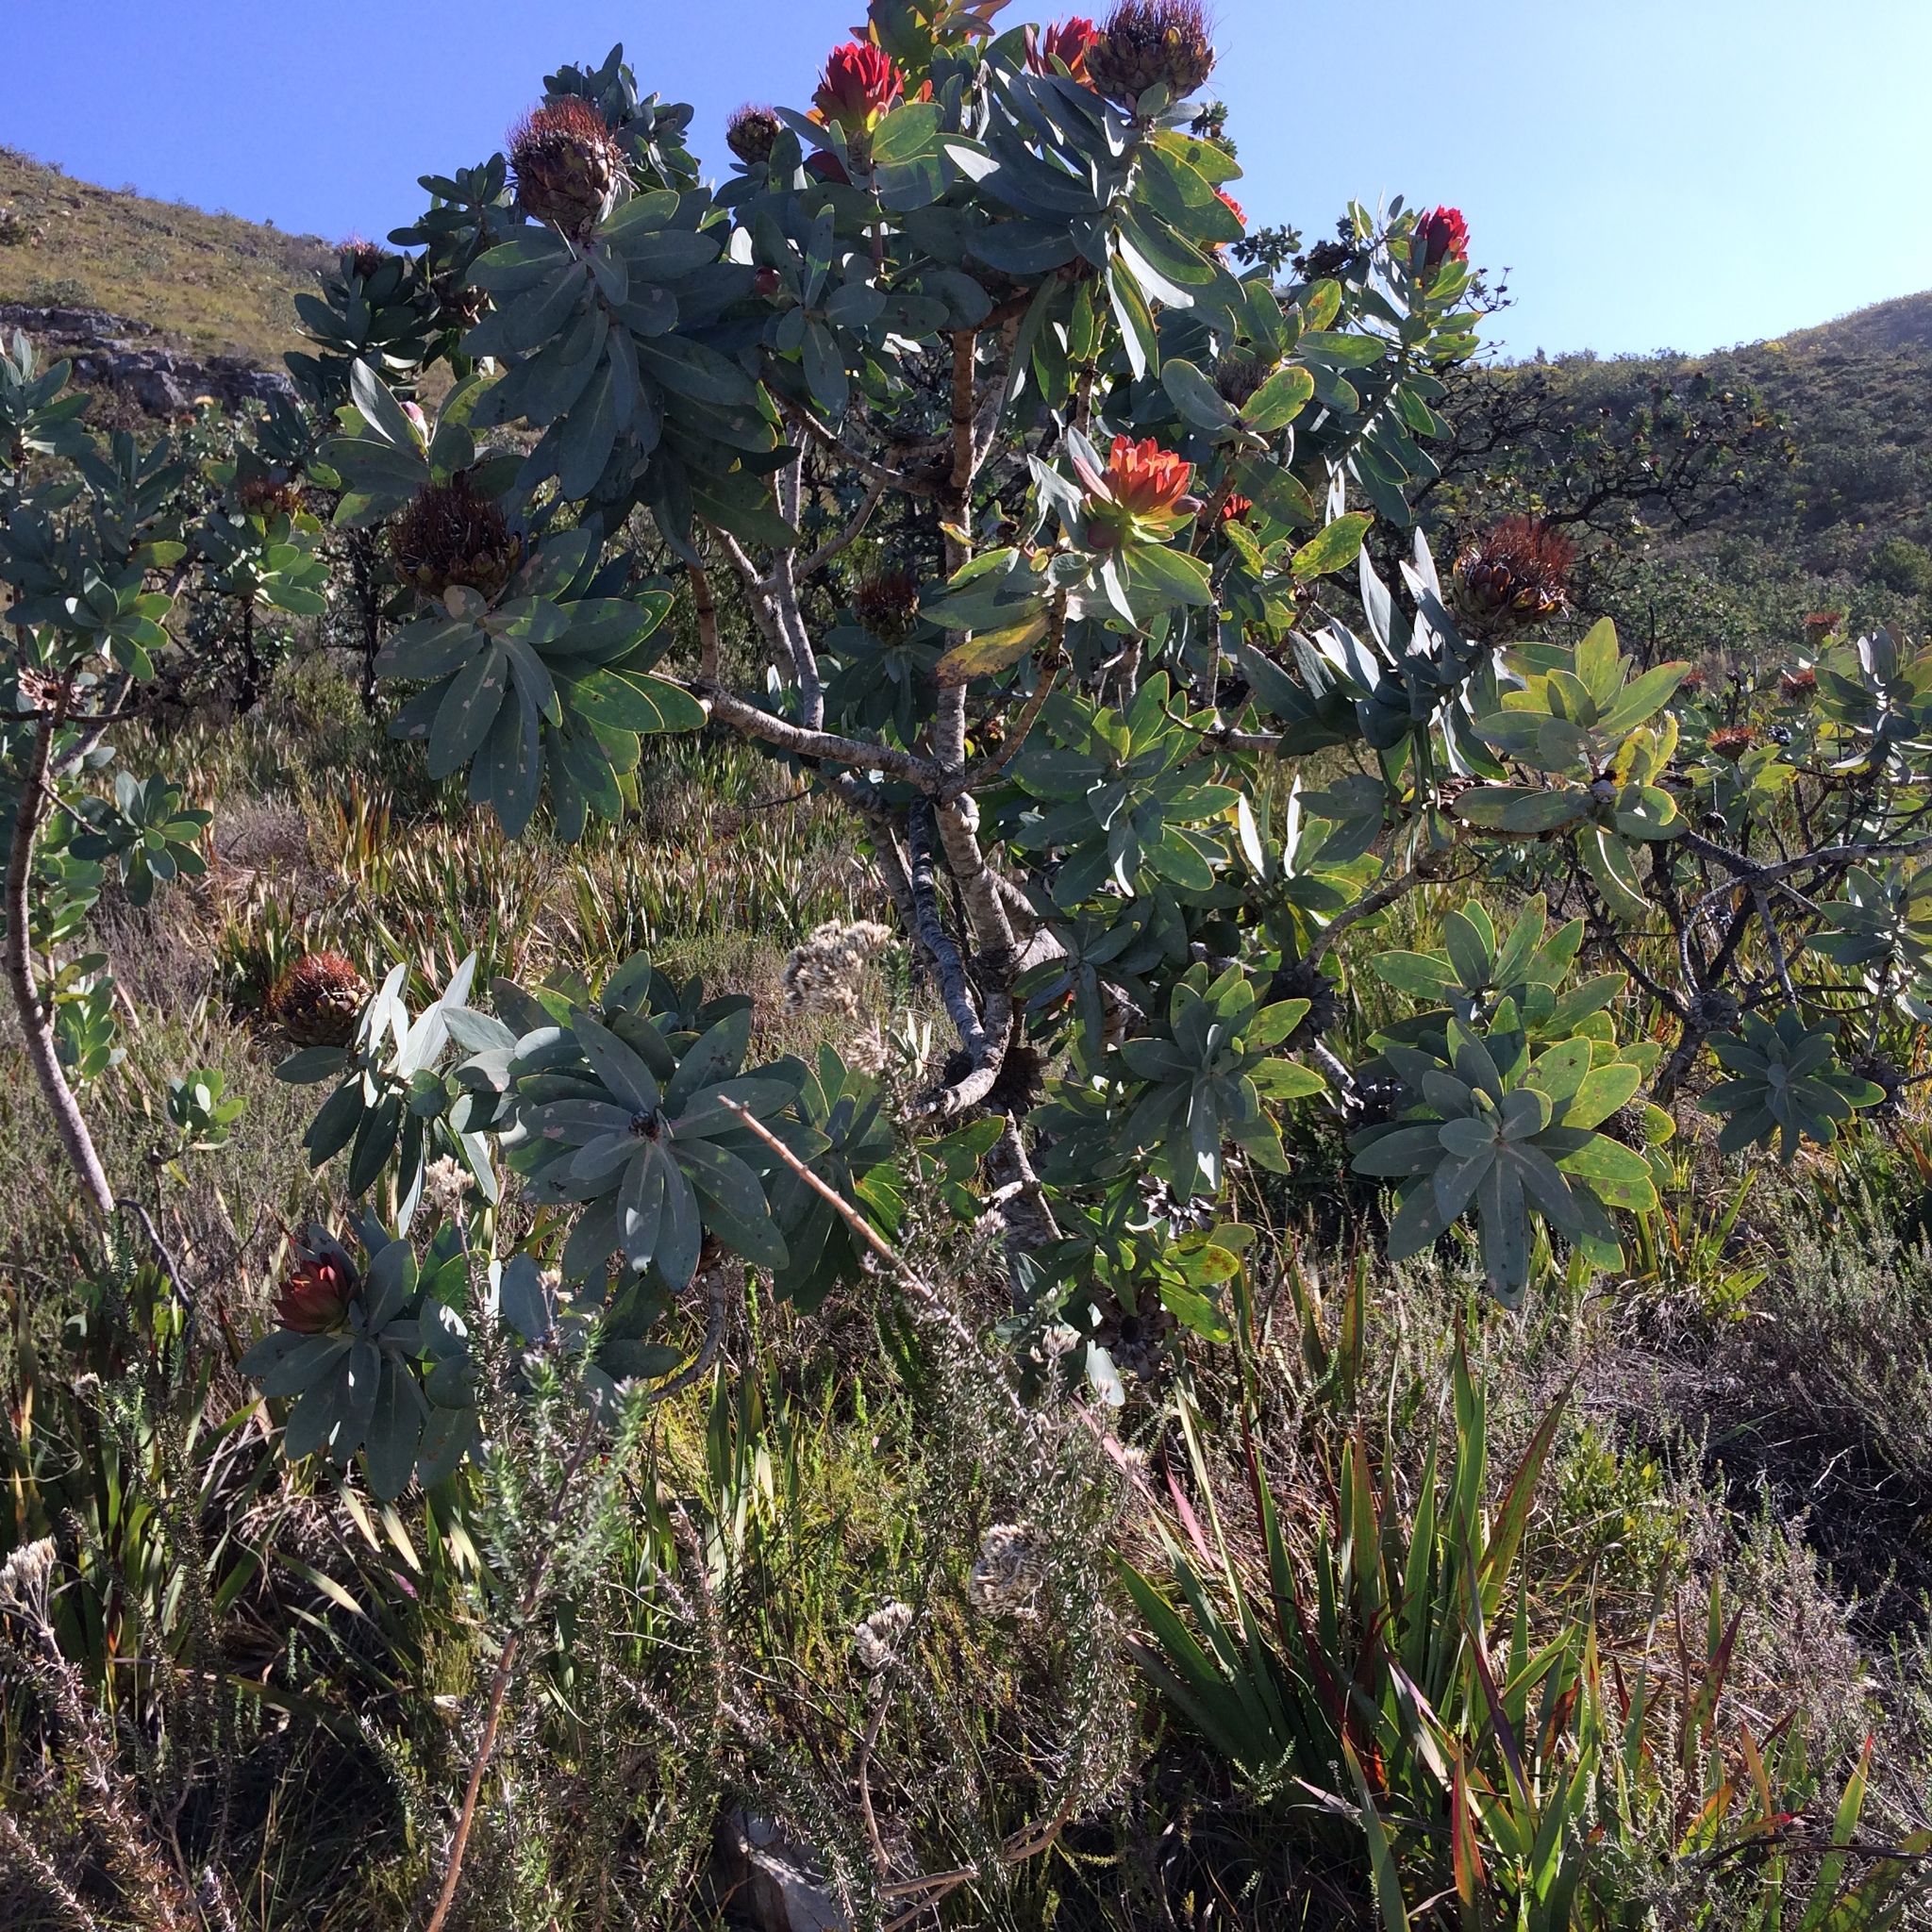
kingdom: Plantae
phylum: Tracheophyta
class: Magnoliopsida
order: Proteales
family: Proteaceae
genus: Protea
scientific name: Protea nitida
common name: Tree protea
